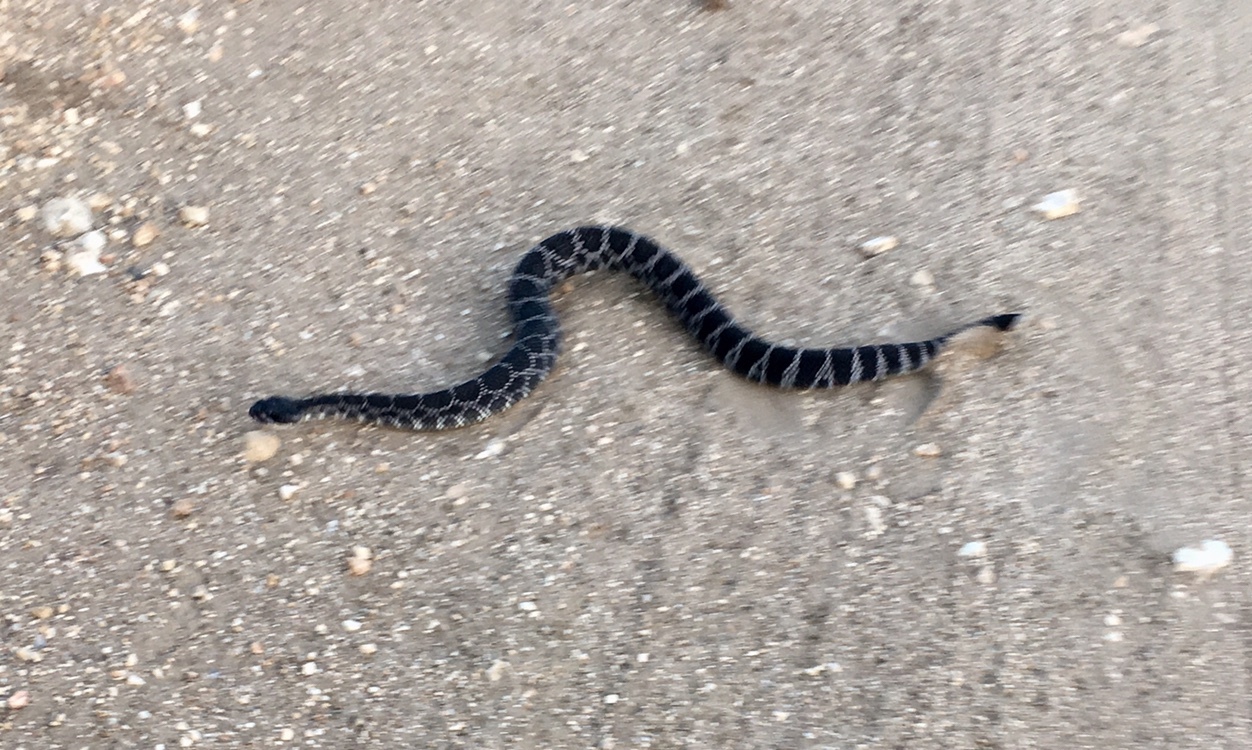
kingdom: Animalia
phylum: Chordata
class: Squamata
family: Viperidae
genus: Crotalus
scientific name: Crotalus oreganus
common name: Abyssus
